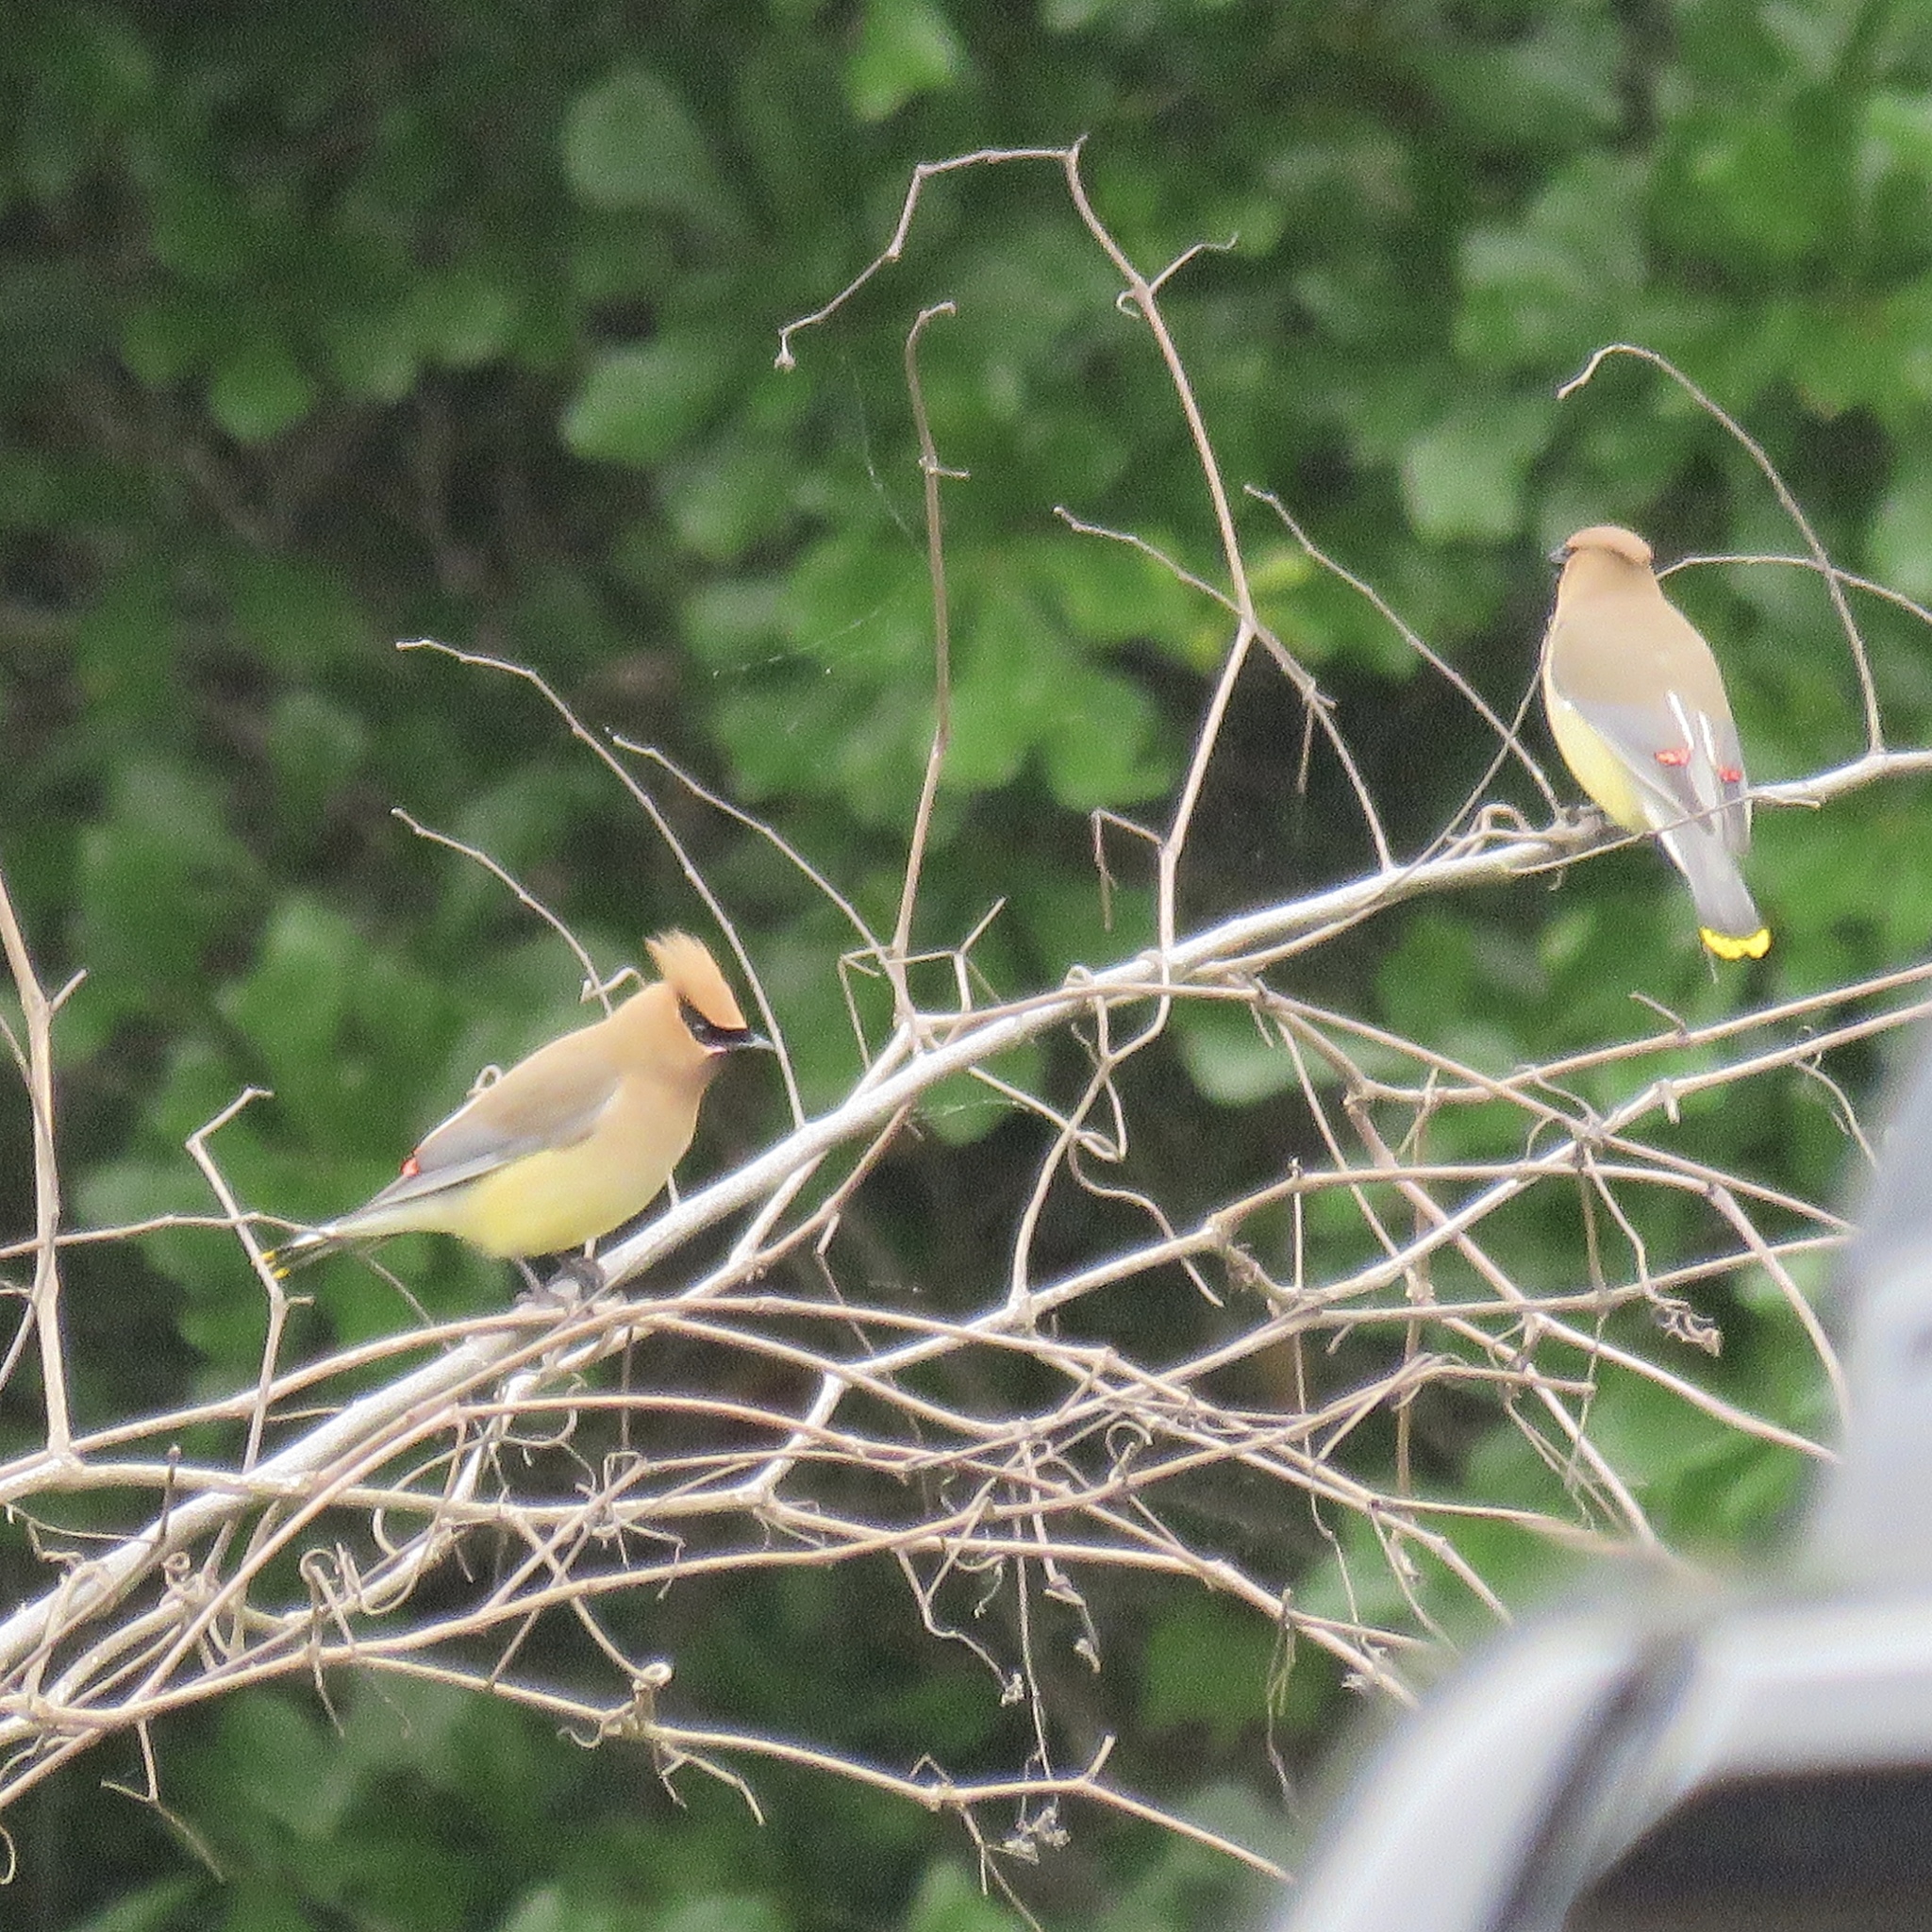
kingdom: Animalia
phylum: Chordata
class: Aves
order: Passeriformes
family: Bombycillidae
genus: Bombycilla
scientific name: Bombycilla cedrorum
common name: Cedar waxwing
